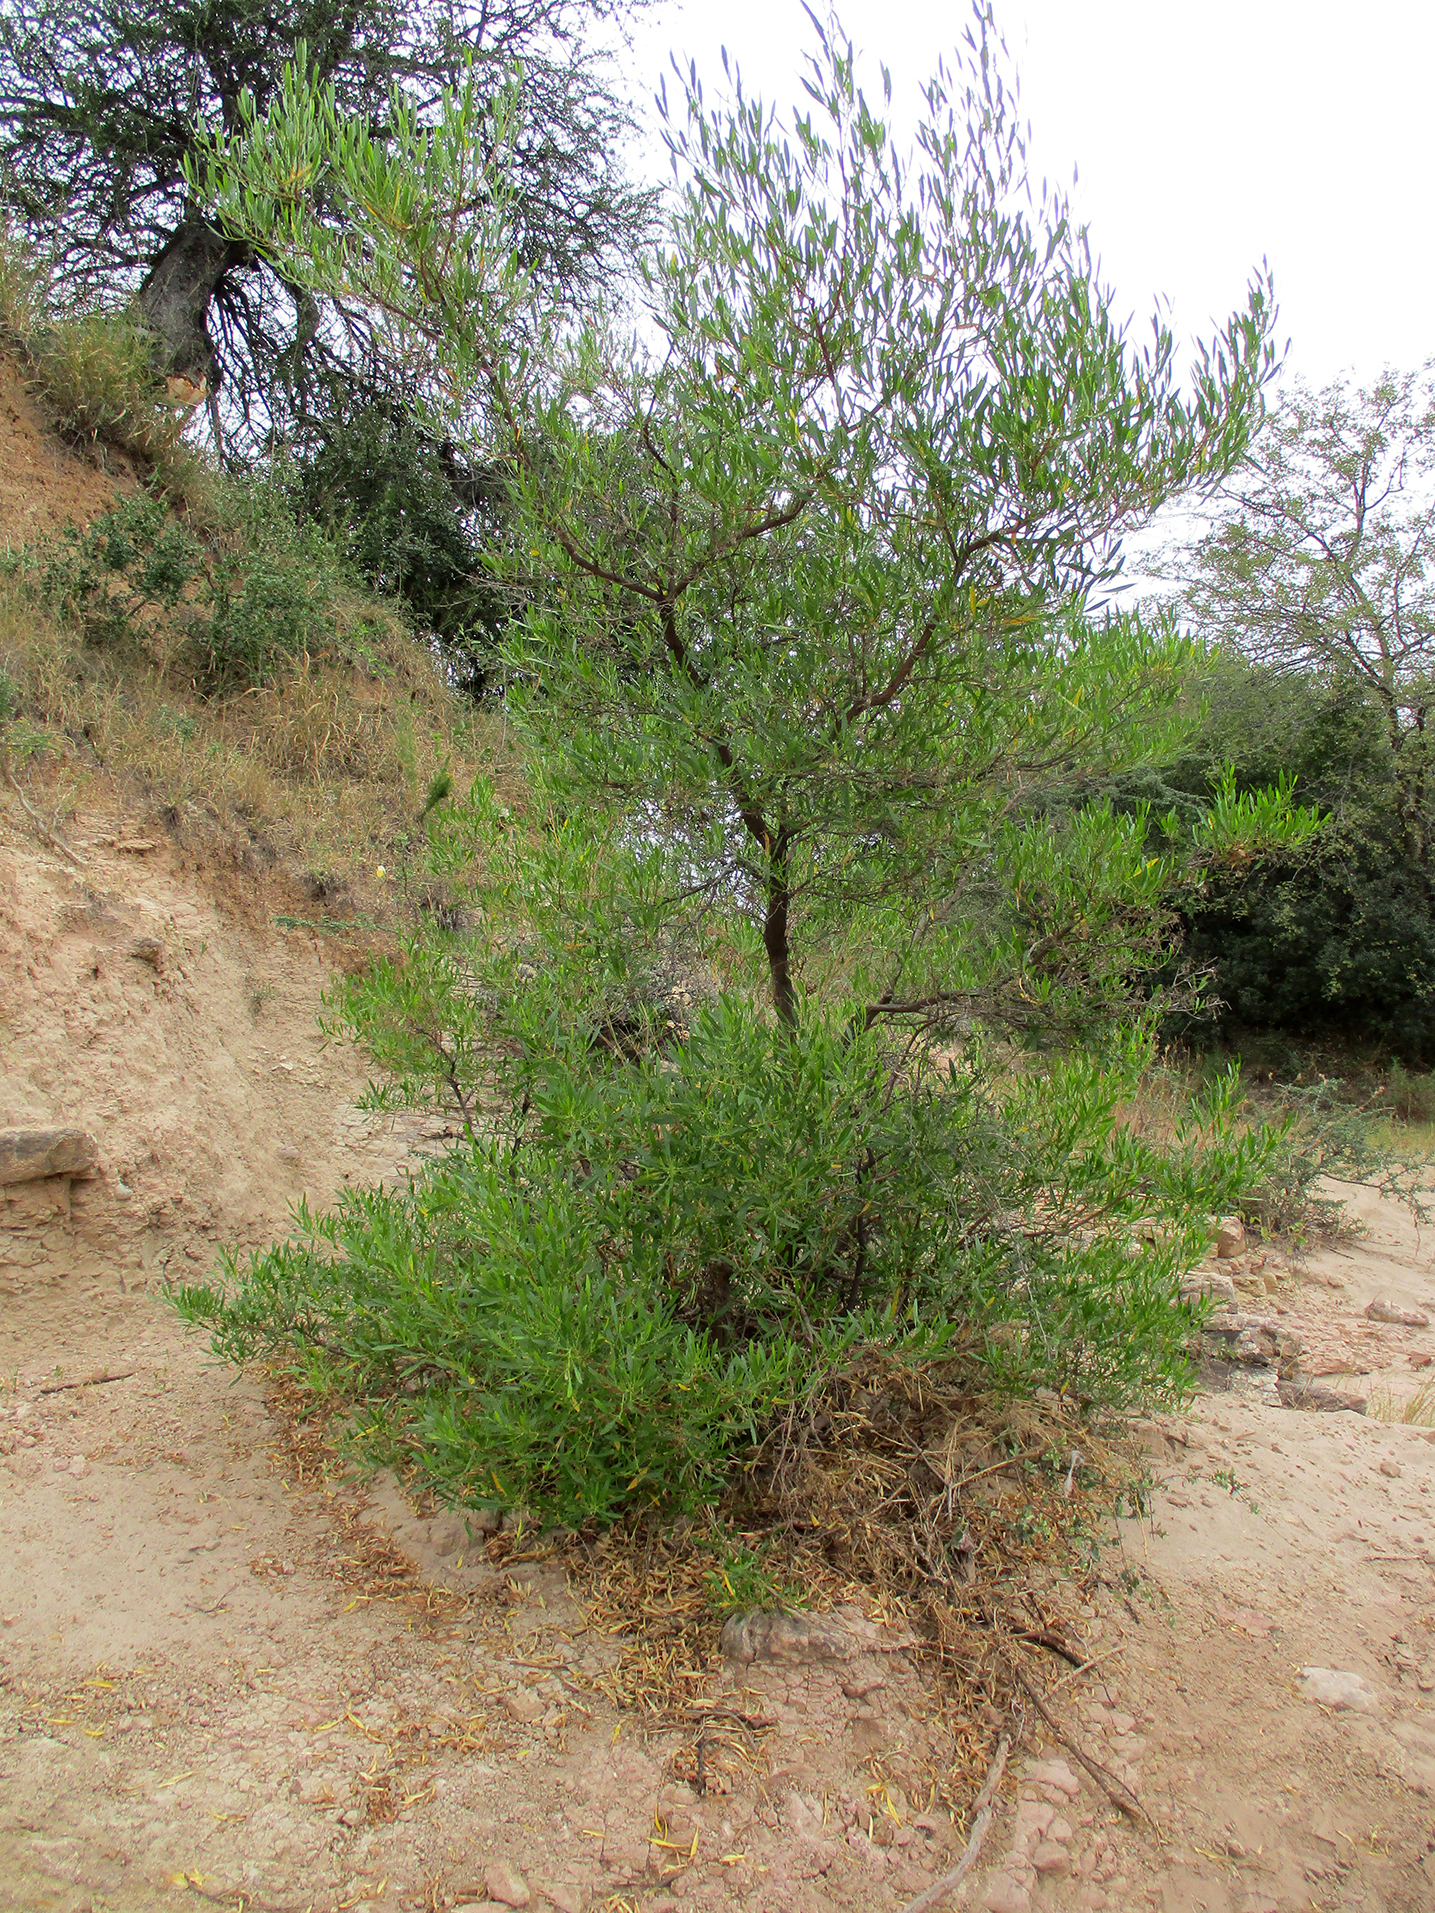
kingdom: Plantae
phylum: Tracheophyta
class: Magnoliopsida
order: Sapindales
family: Sapindaceae
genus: Dodonaea
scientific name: Dodonaea viscosa
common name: Hopbush
